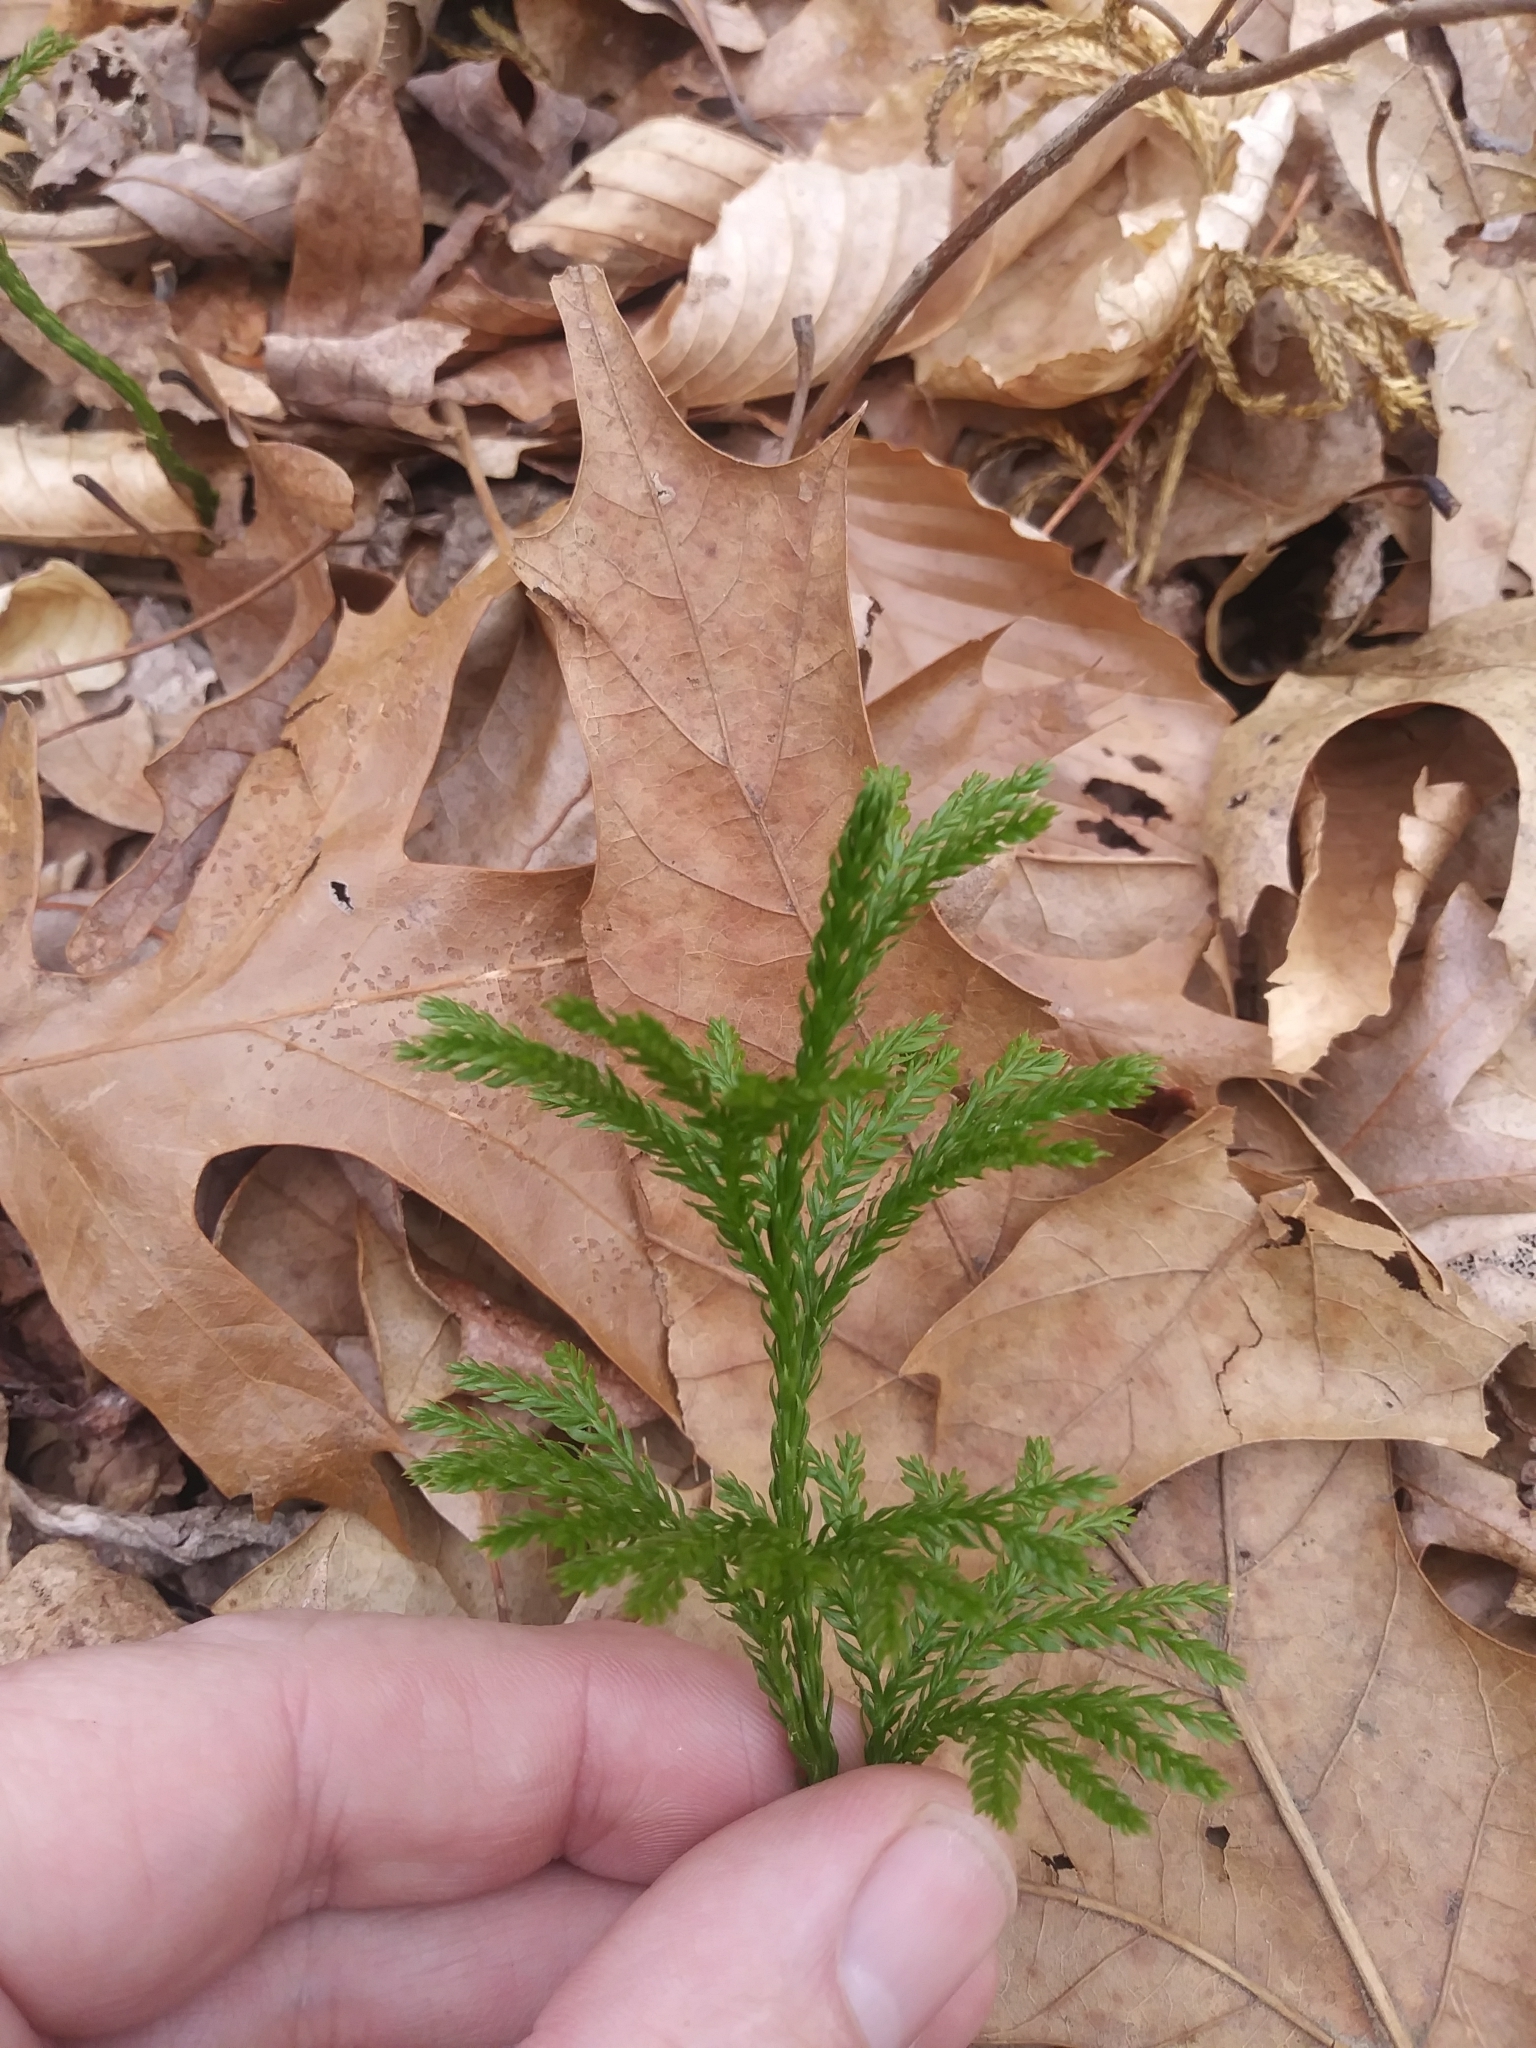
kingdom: Plantae
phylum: Tracheophyta
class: Lycopodiopsida
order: Lycopodiales
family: Lycopodiaceae
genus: Dendrolycopodium
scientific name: Dendrolycopodium obscurum
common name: Common ground-pine
